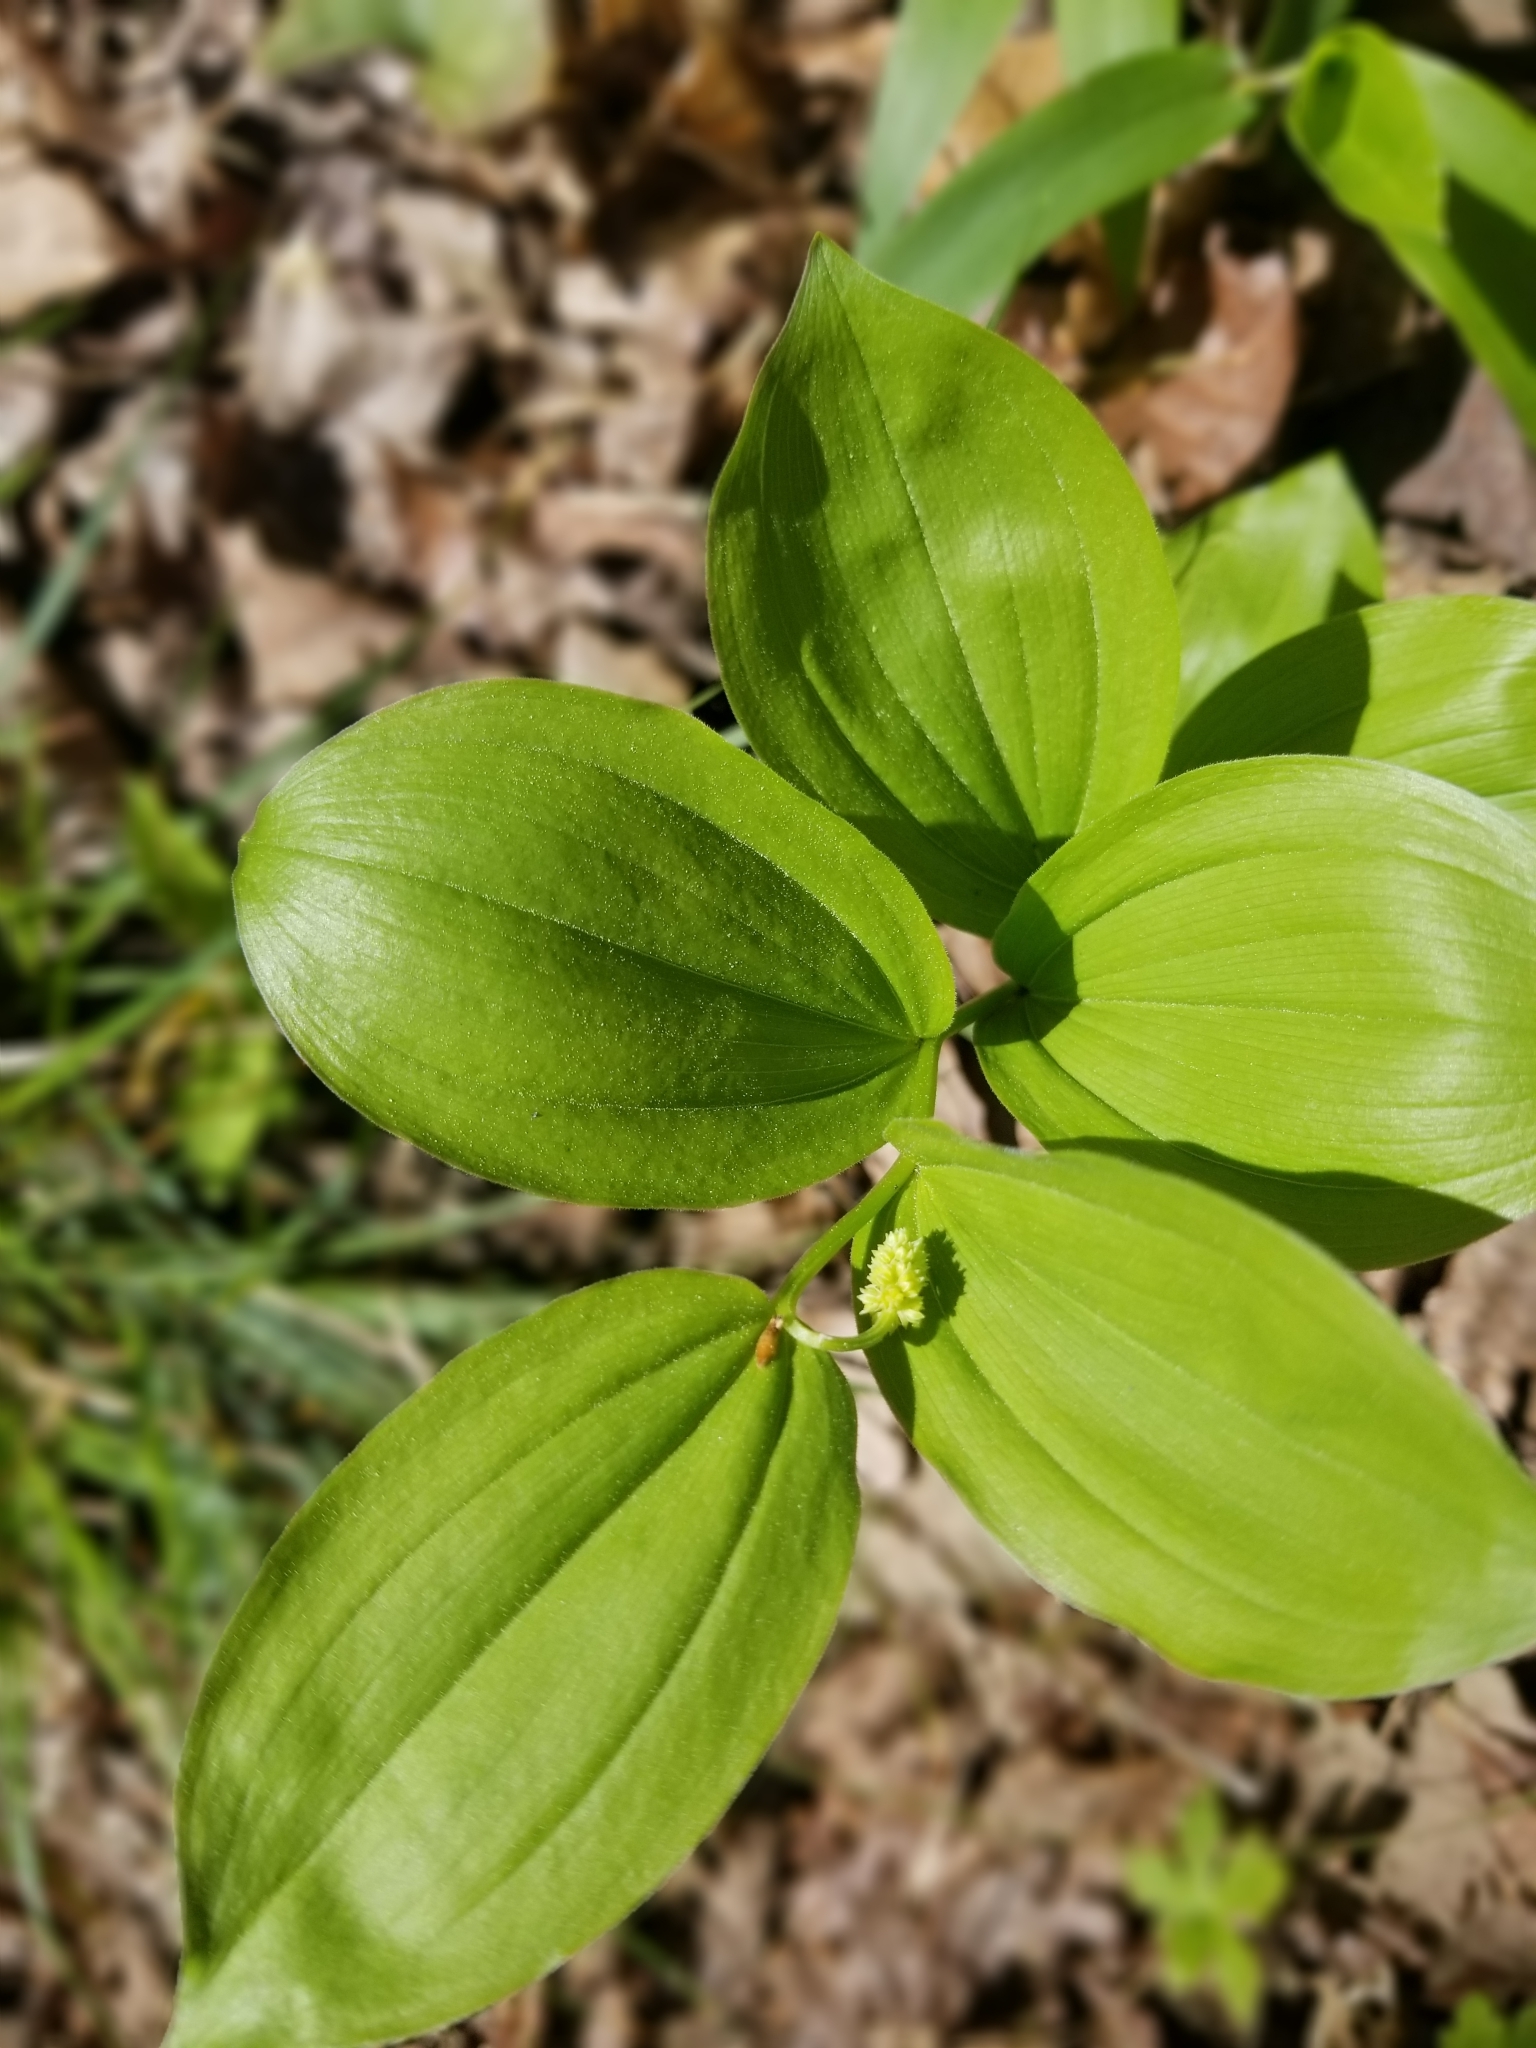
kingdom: Plantae
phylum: Tracheophyta
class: Liliopsida
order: Asparagales
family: Asparagaceae
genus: Maianthemum
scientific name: Maianthemum racemosum
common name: False spikenard
